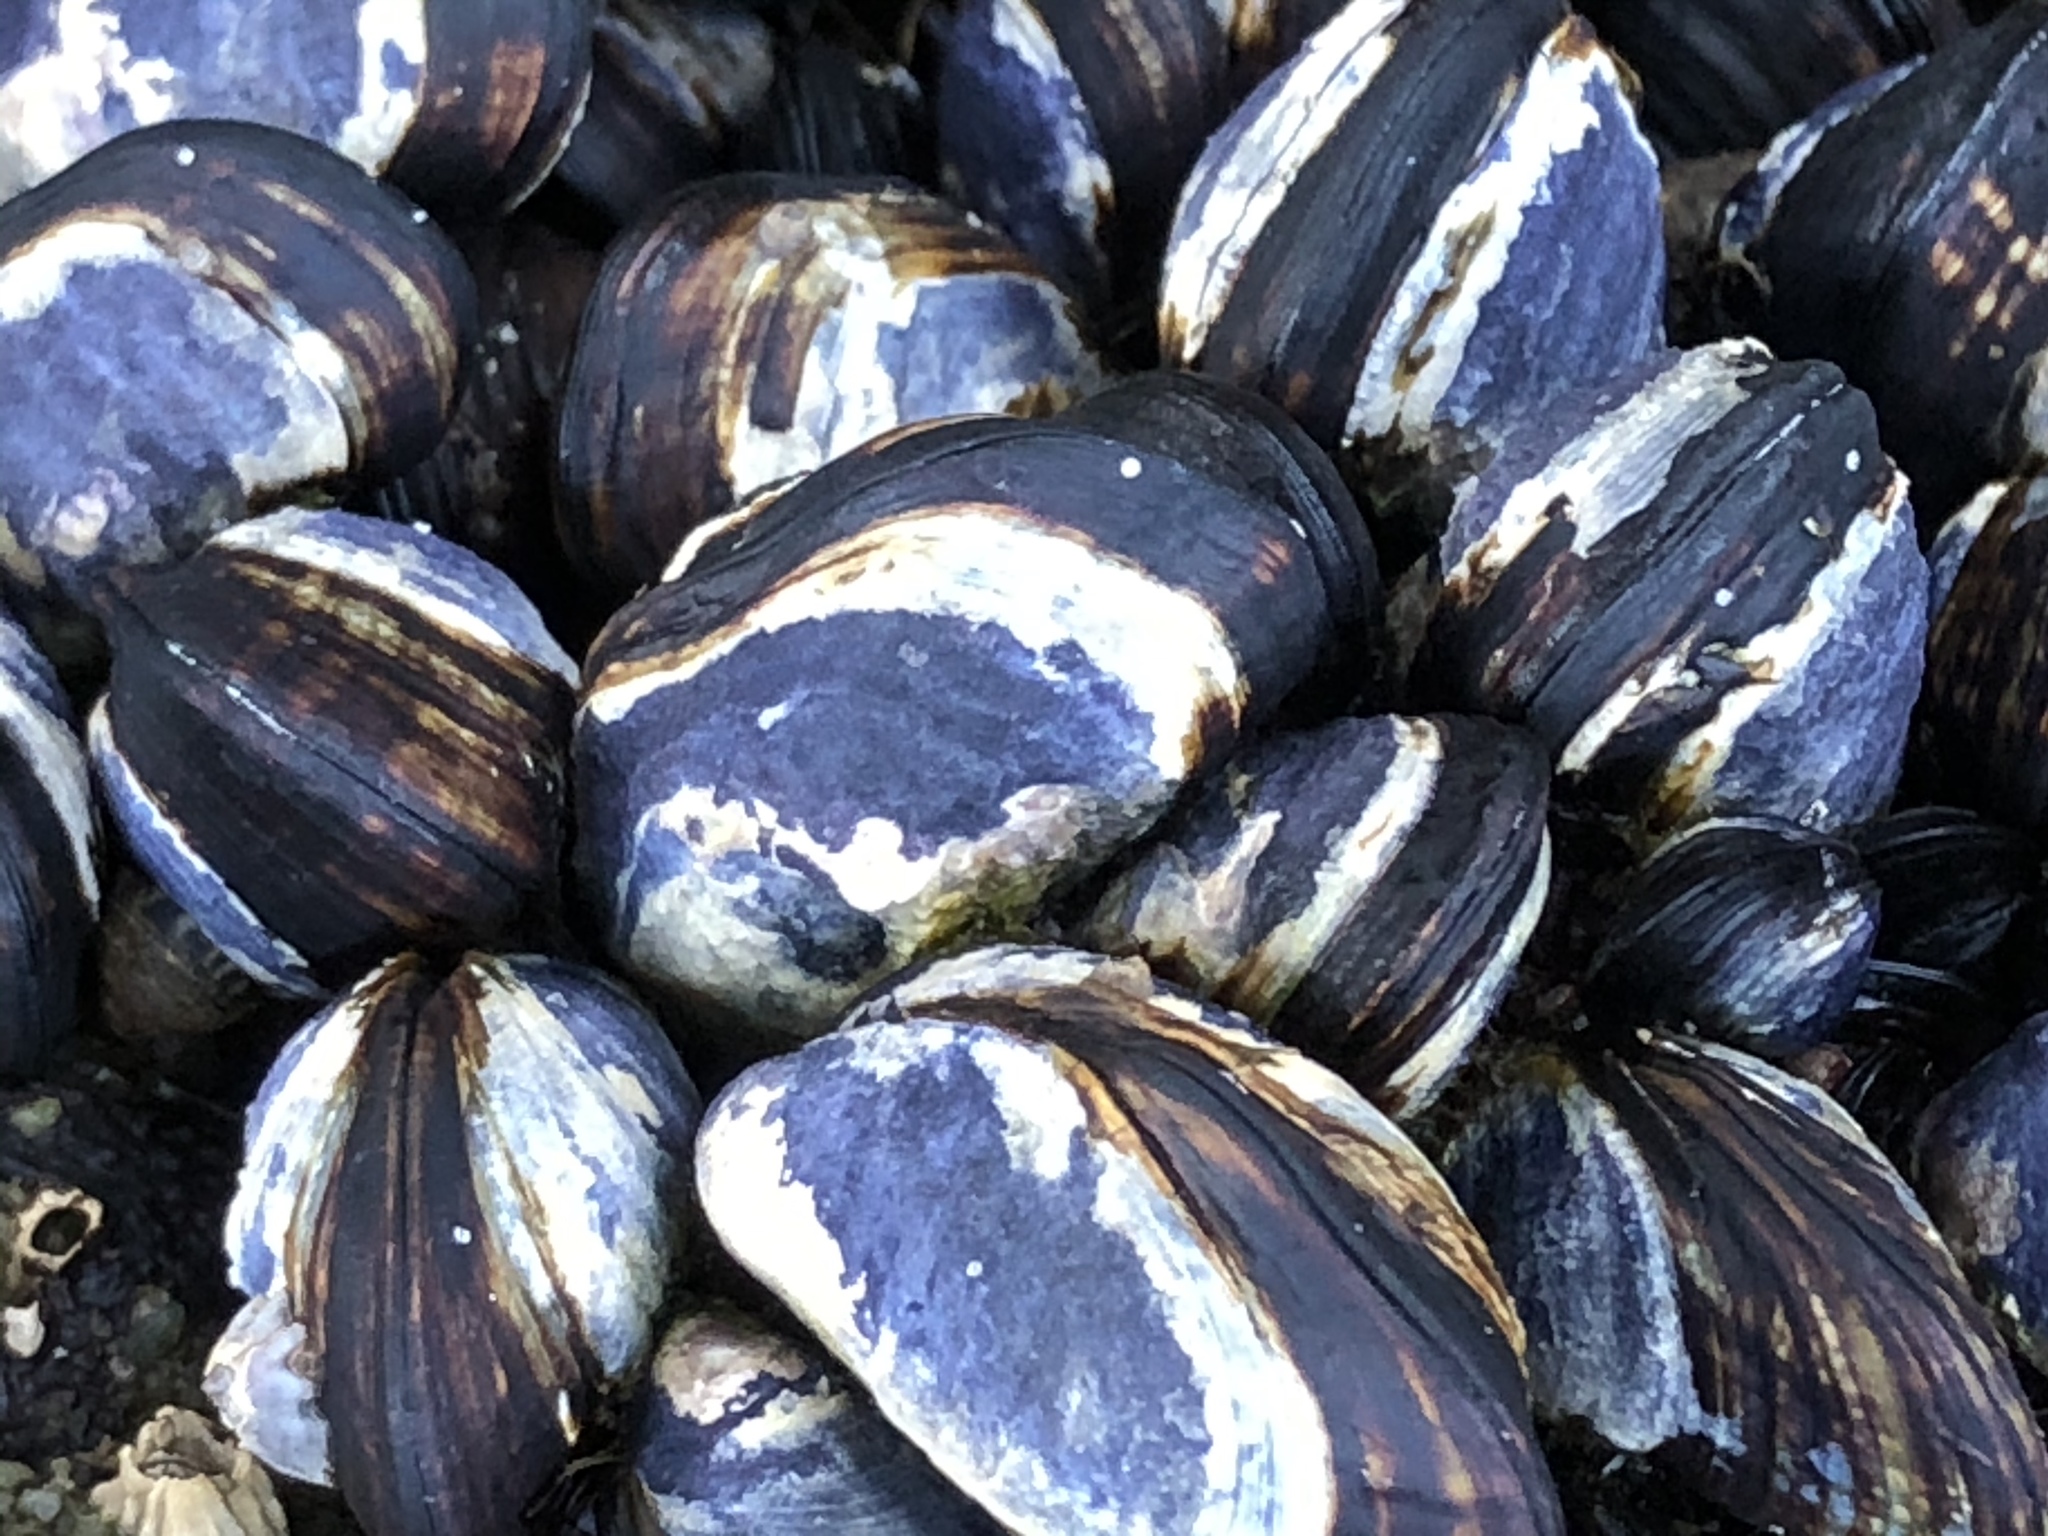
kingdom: Animalia
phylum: Mollusca
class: Bivalvia
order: Mytilida
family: Mytilidae
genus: Mytilus
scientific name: Mytilus californianus
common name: California mussel
